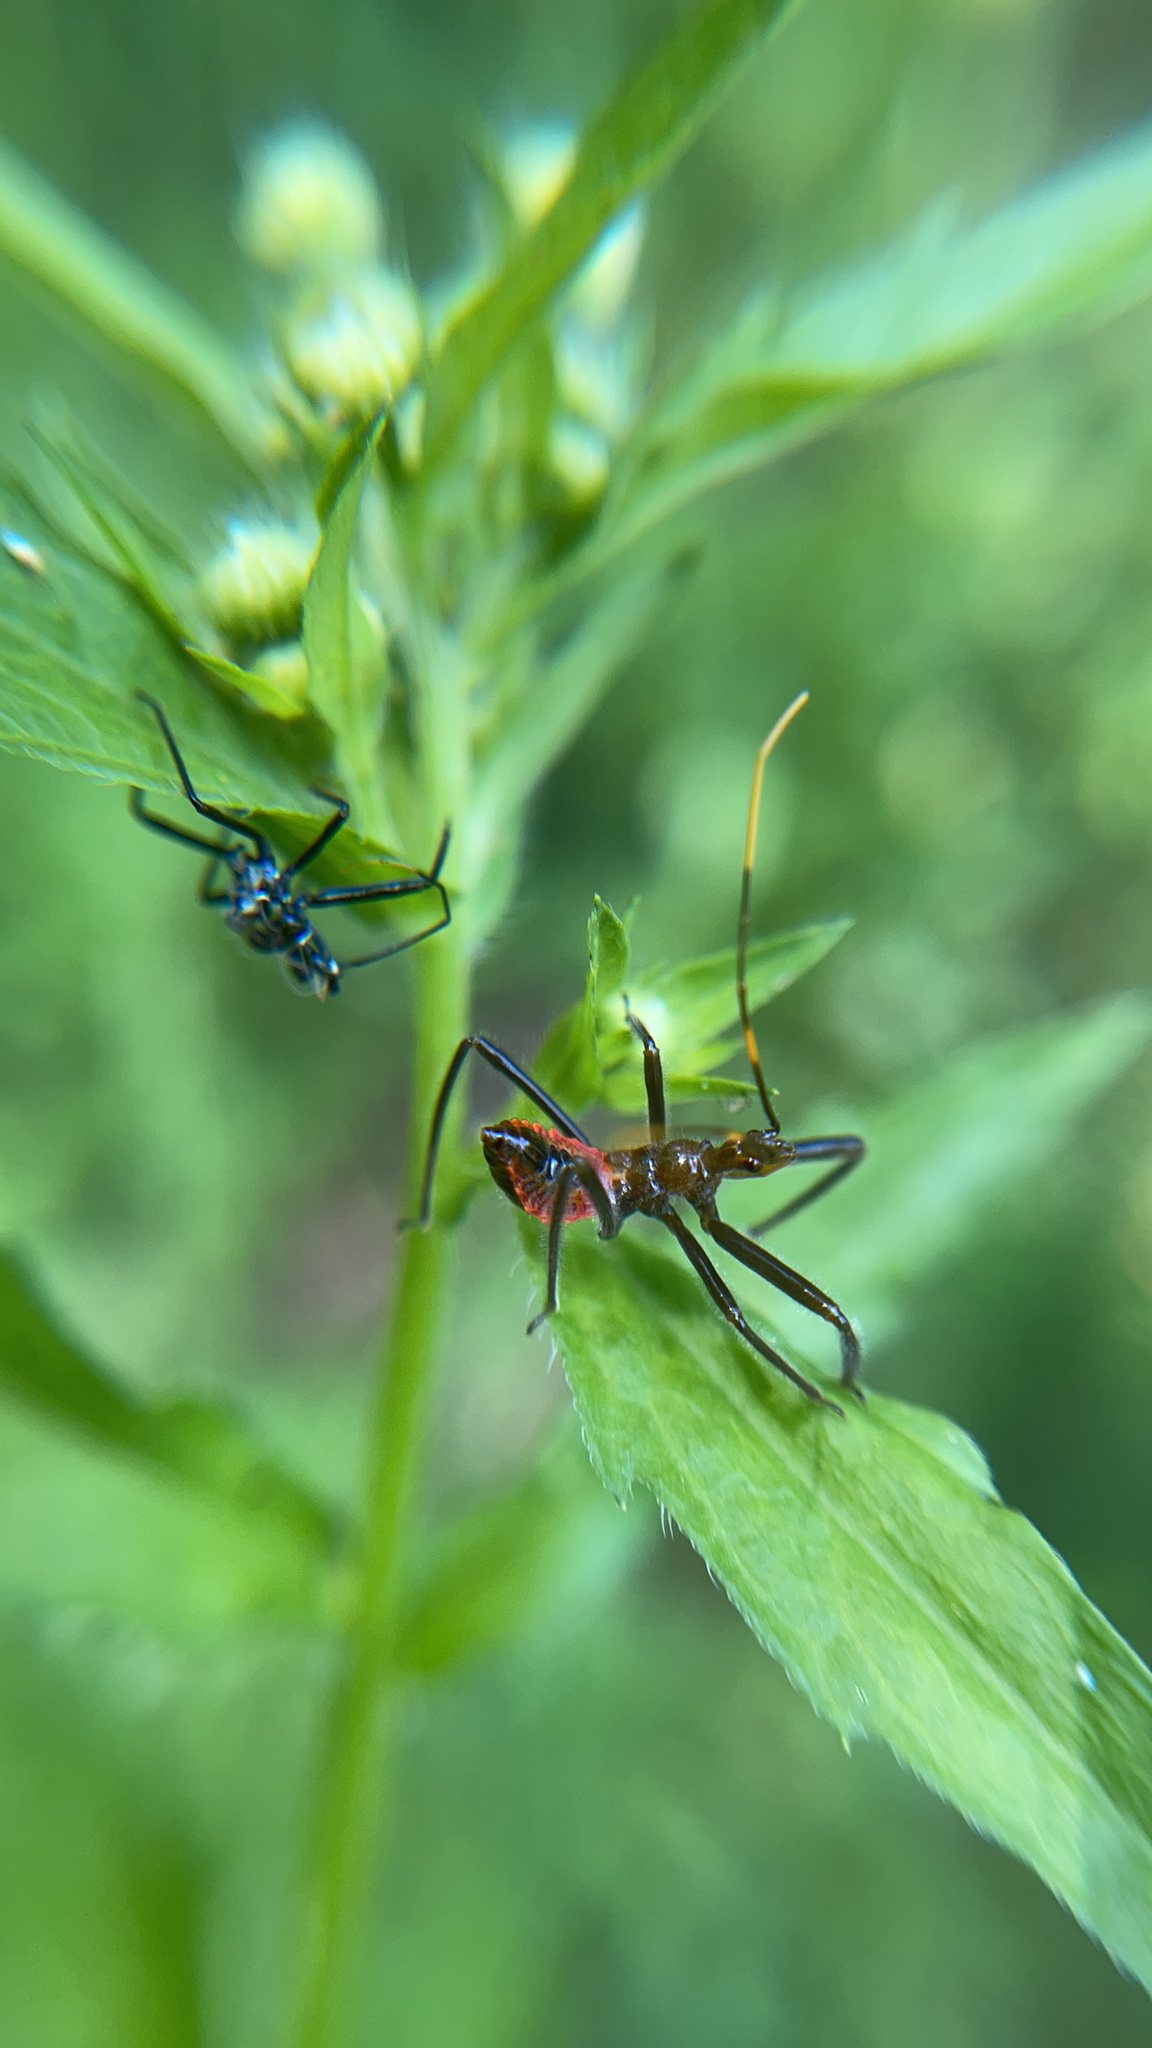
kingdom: Animalia
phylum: Arthropoda
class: Insecta
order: Hemiptera
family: Reduviidae
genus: Arilus
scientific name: Arilus cristatus
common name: North american wheel bug
